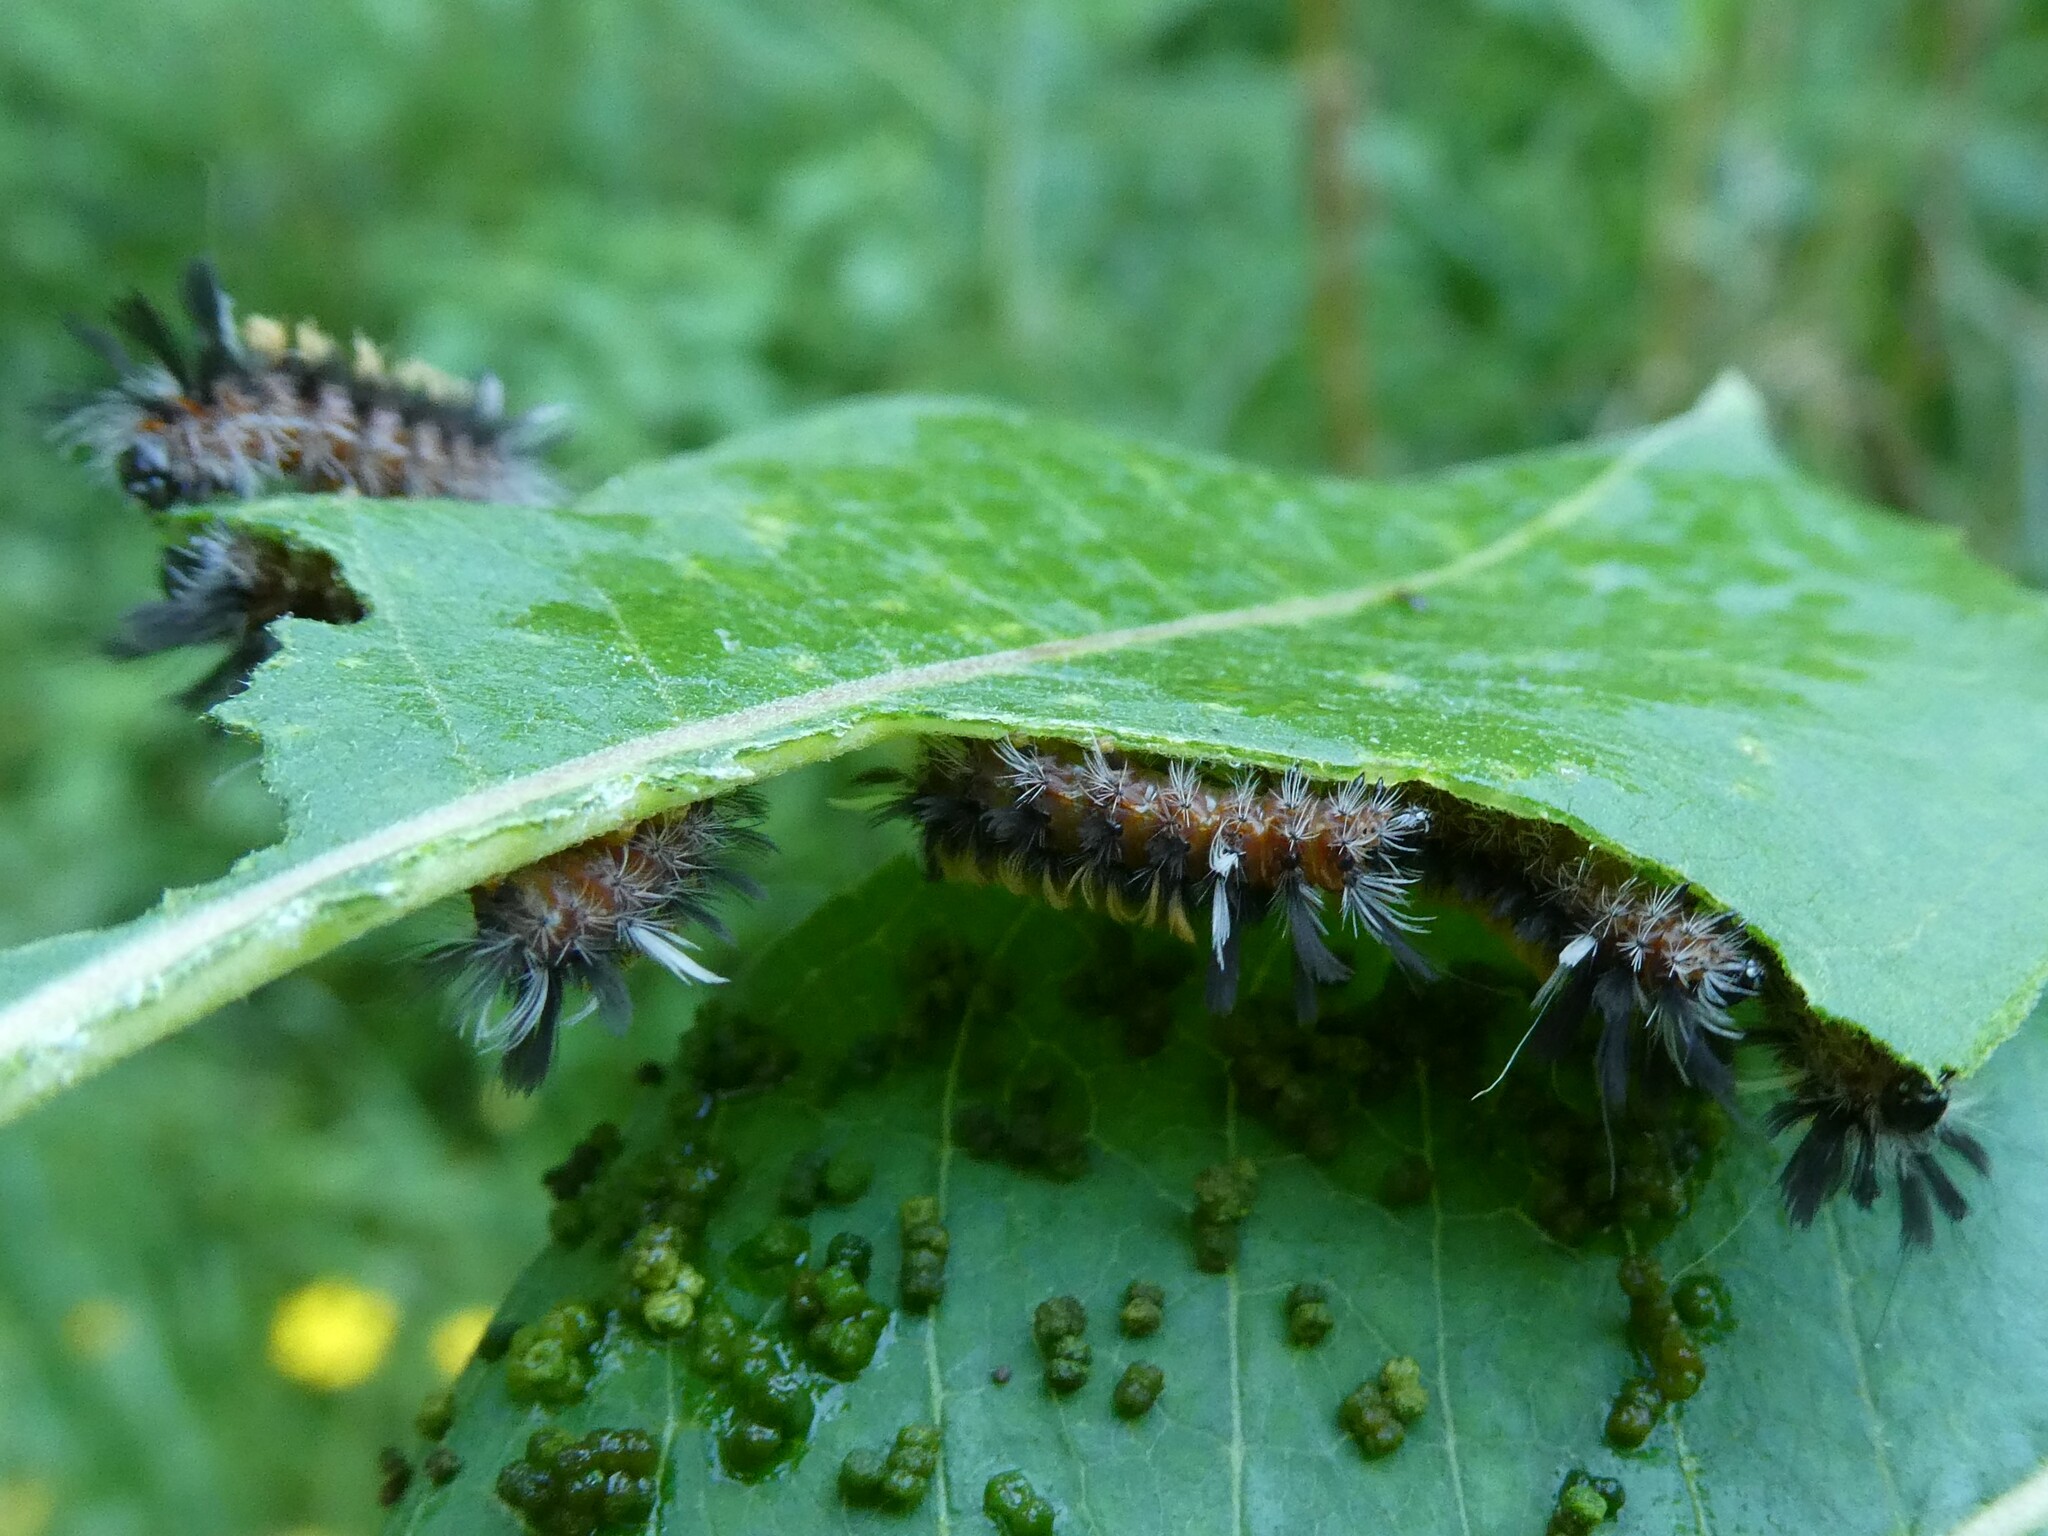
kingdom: Animalia
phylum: Arthropoda
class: Insecta
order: Lepidoptera
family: Erebidae
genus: Euchaetes
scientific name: Euchaetes egle
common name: Milkweed tussock moth
